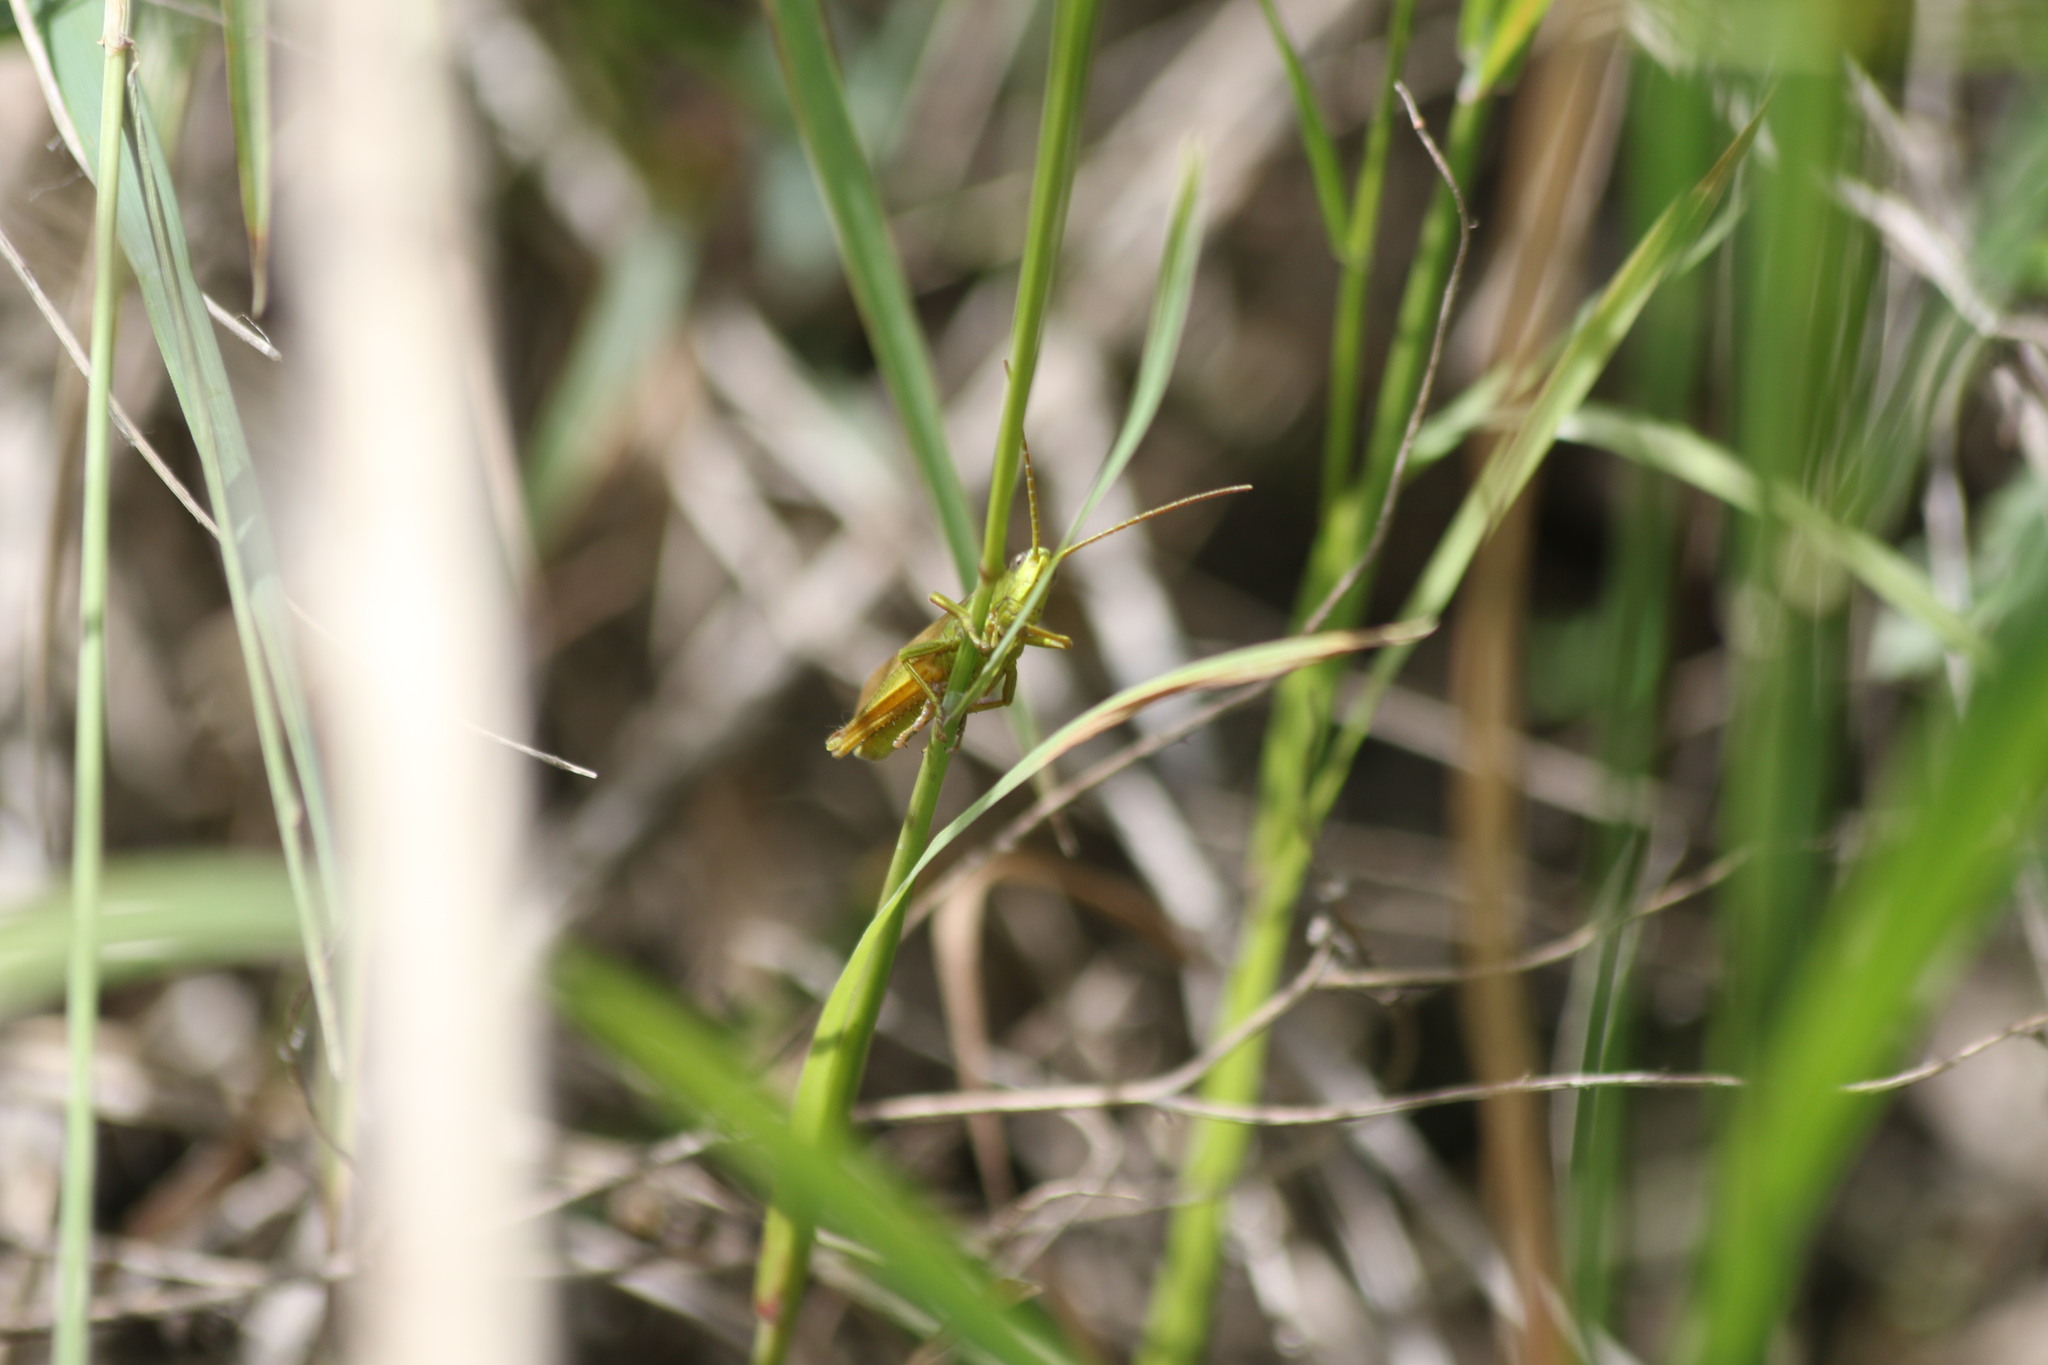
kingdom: Animalia
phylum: Arthropoda
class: Insecta
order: Orthoptera
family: Acrididae
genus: Chrysochraon
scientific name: Chrysochraon dispar
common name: Large gold grasshopper
